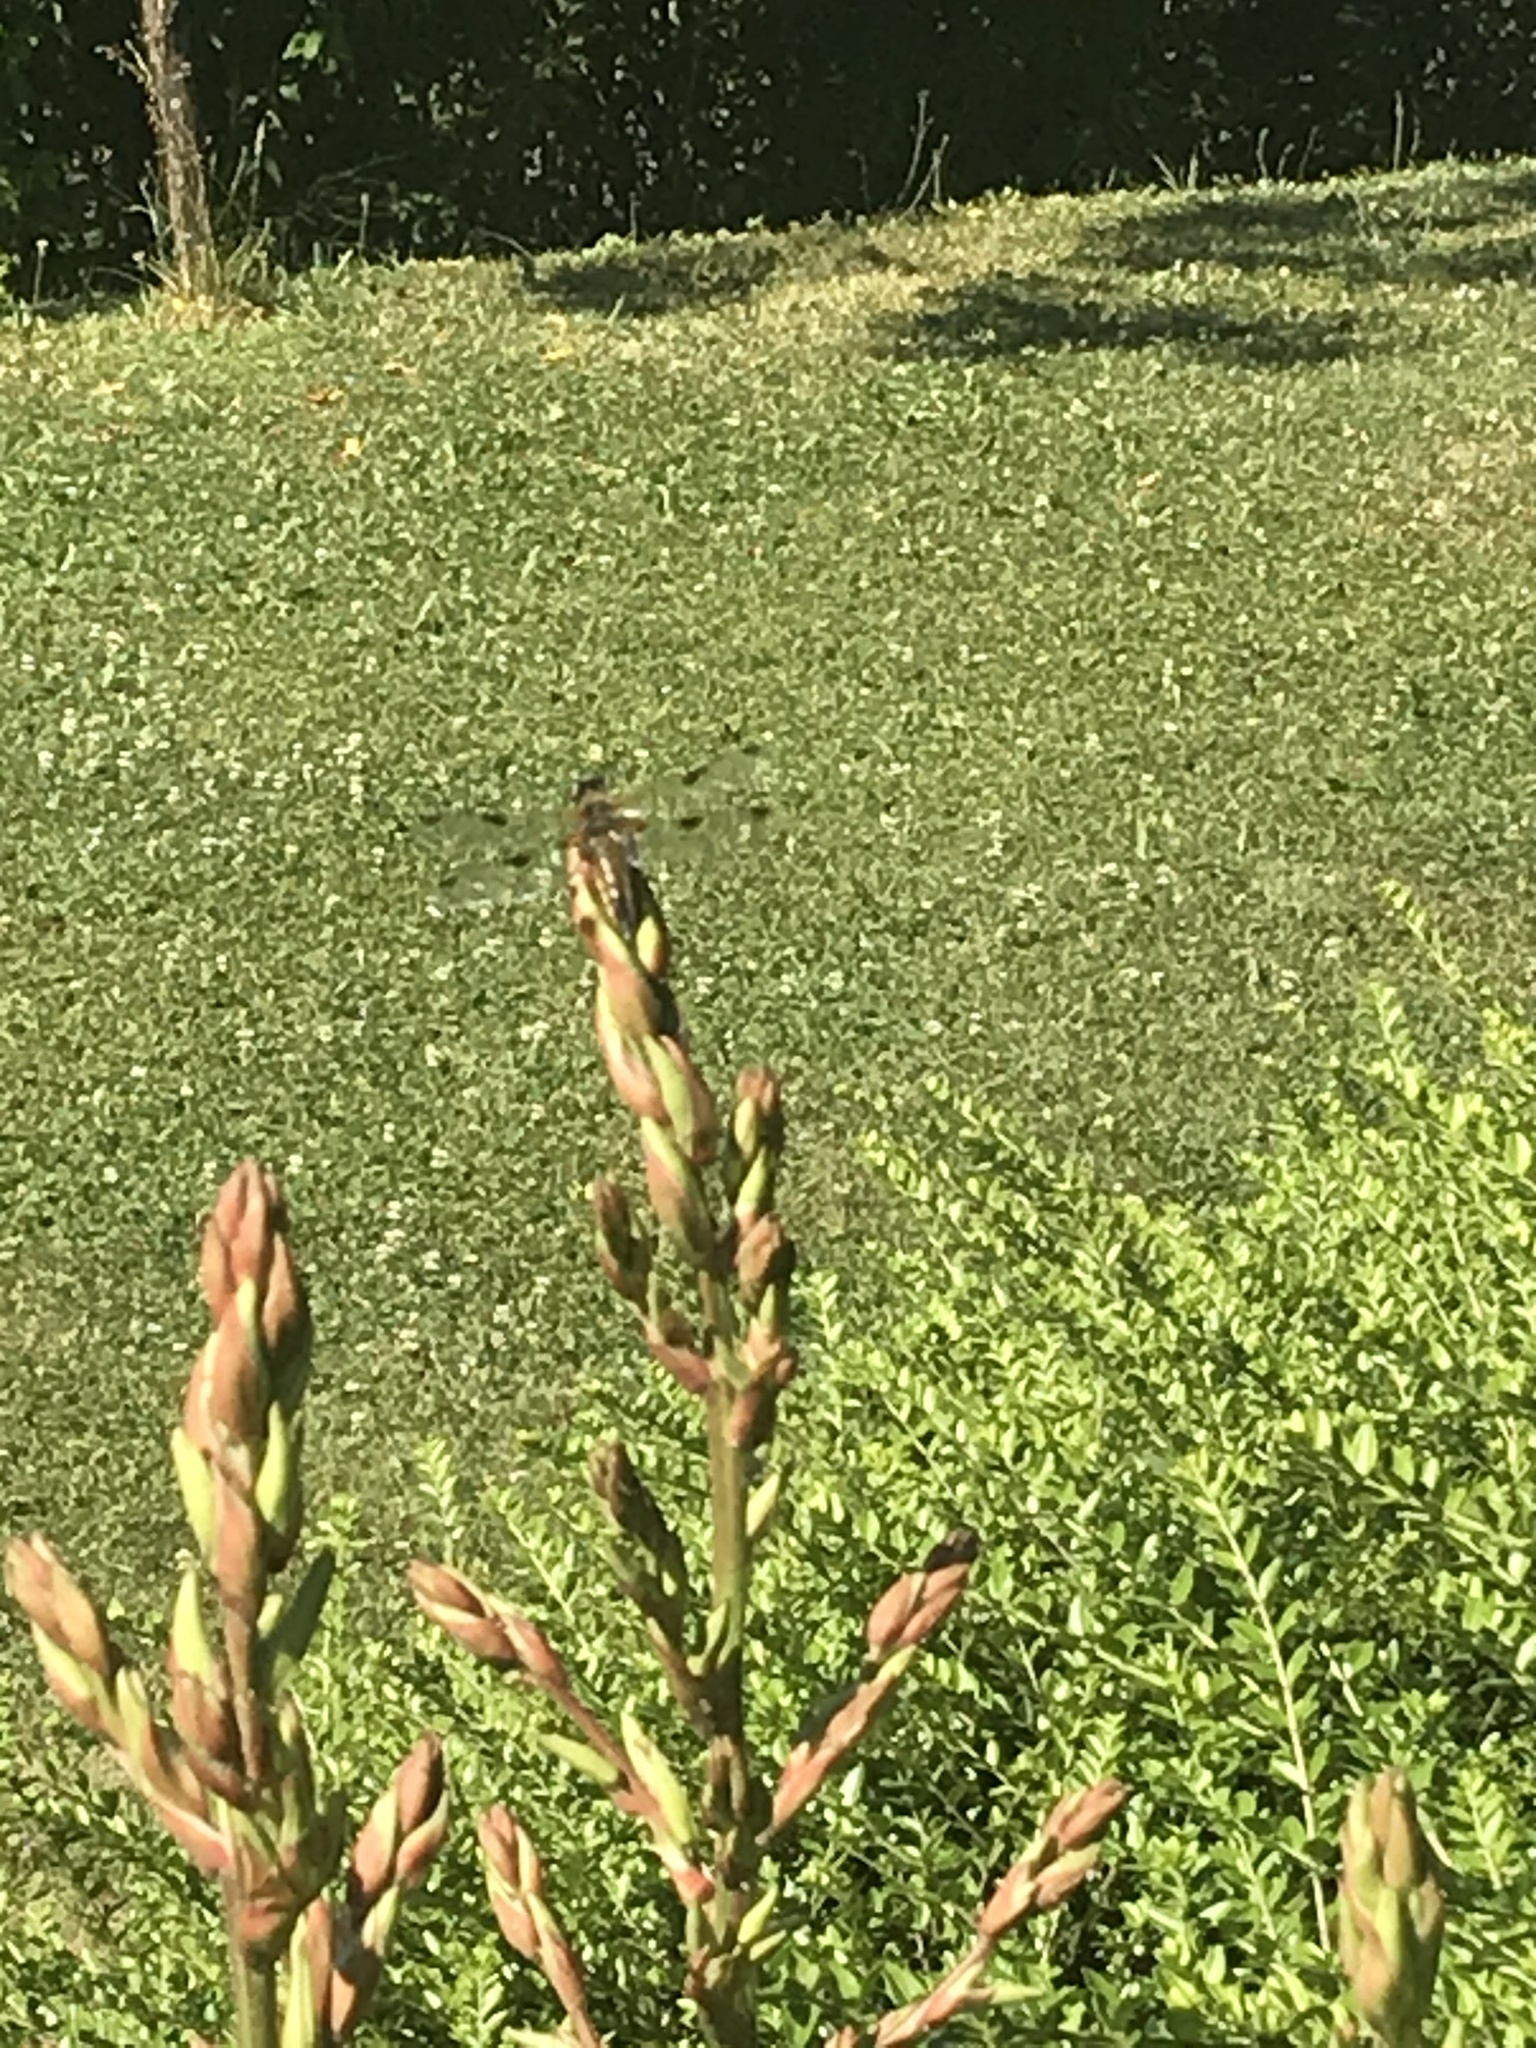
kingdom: Animalia
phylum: Arthropoda
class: Insecta
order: Odonata
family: Libellulidae
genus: Libellula
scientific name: Libellula quadrimaculata
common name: Four-spotted chaser
